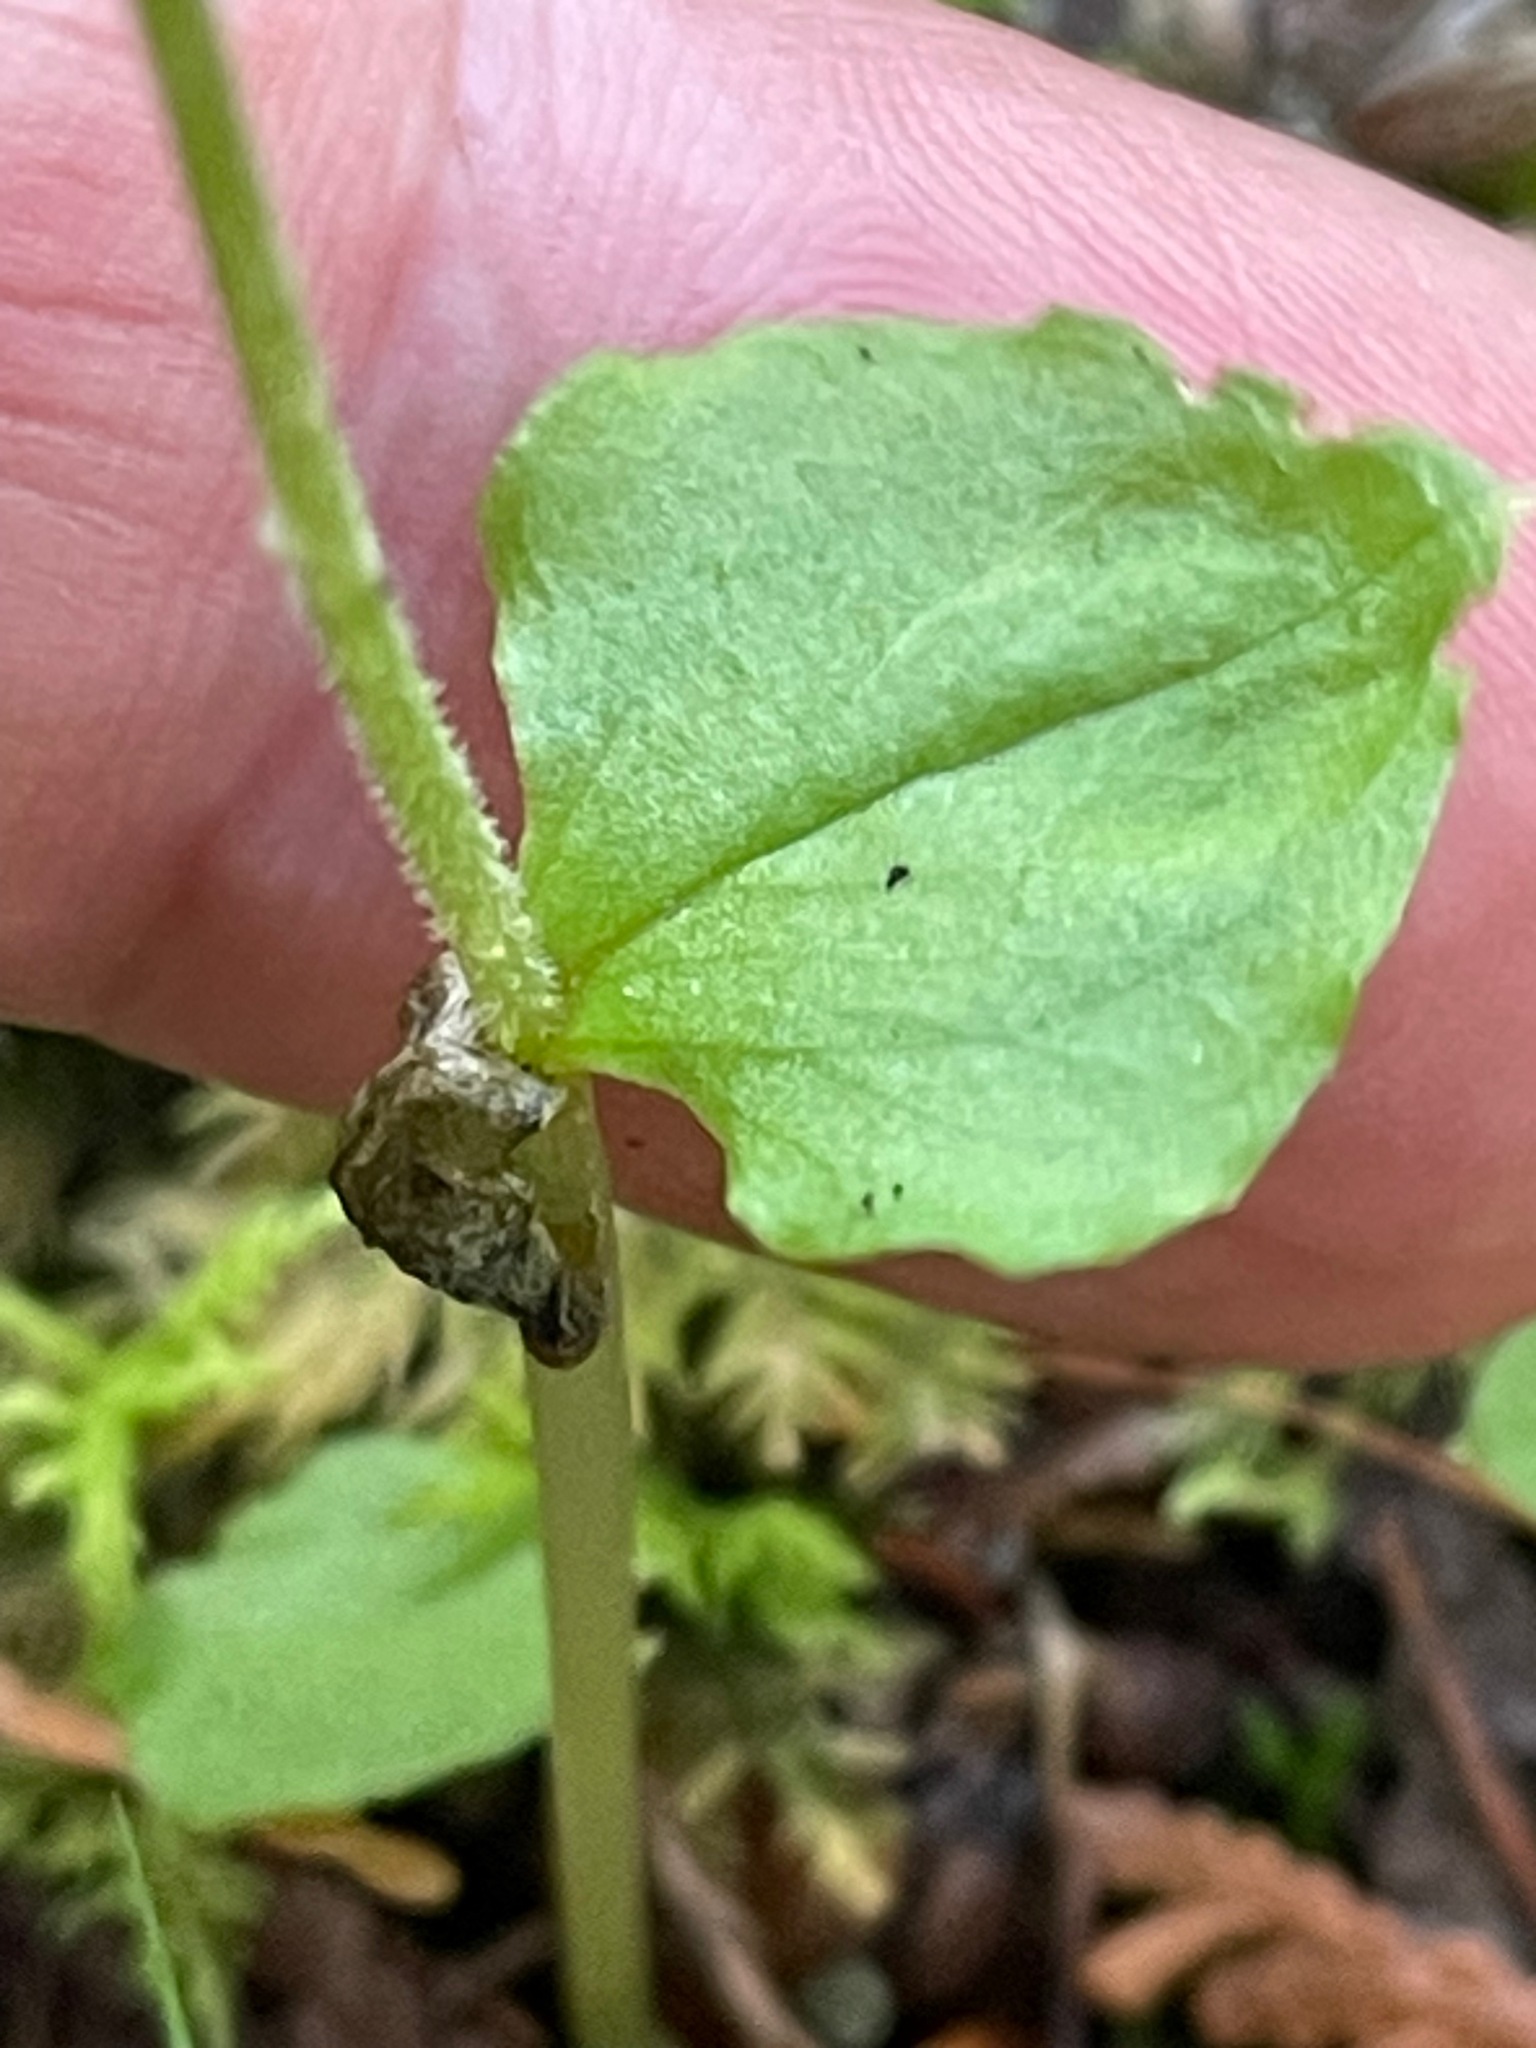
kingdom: Plantae
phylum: Tracheophyta
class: Liliopsida
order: Asparagales
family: Orchidaceae
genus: Neottia
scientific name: Neottia cordata
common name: Lesser twayblade
